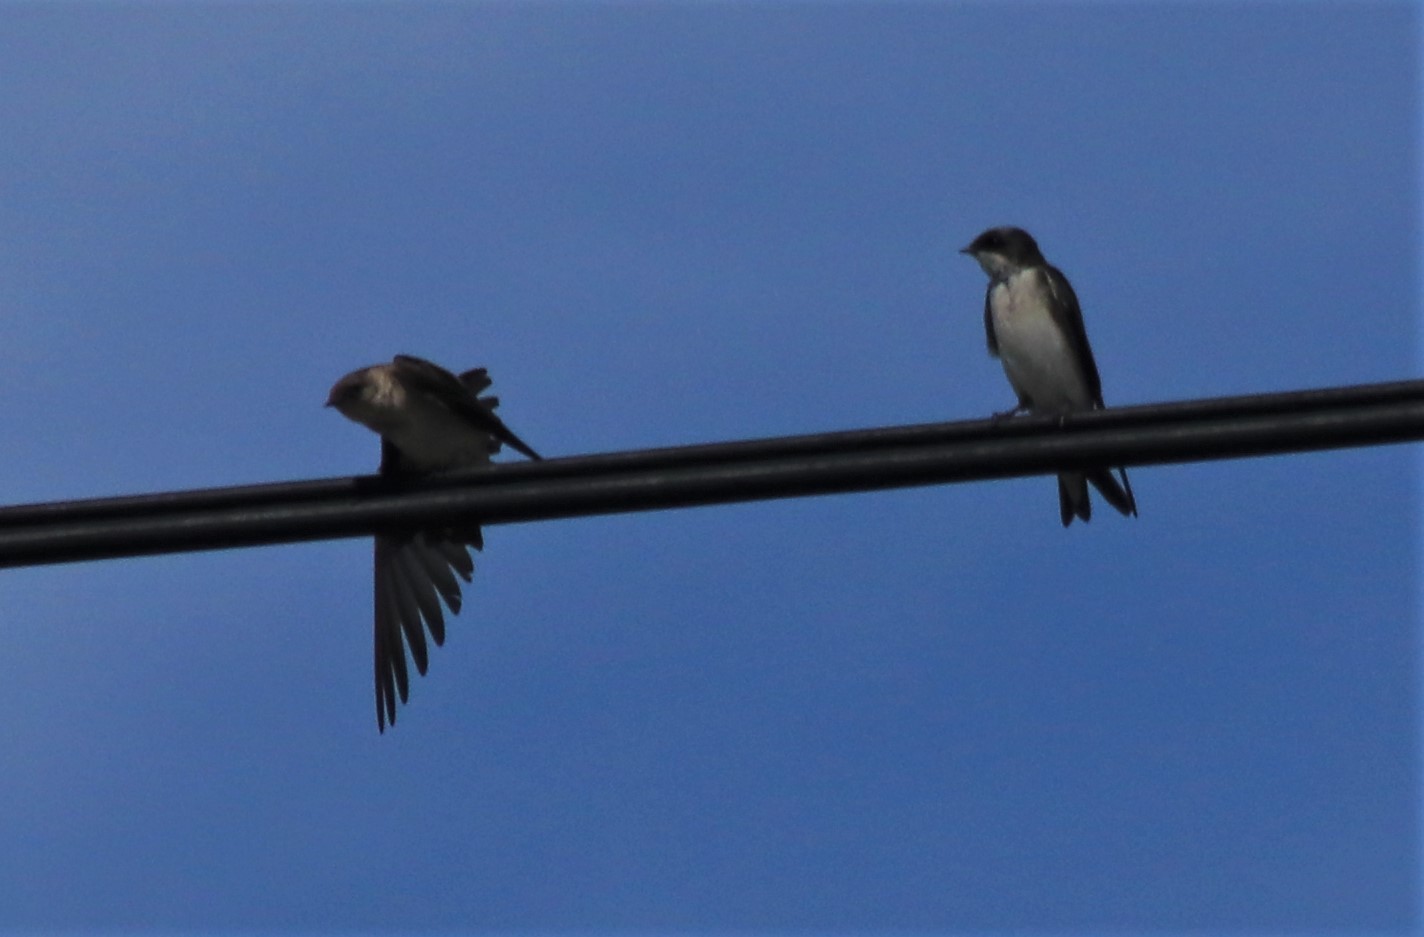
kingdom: Animalia
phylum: Chordata
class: Aves
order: Passeriformes
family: Hirundinidae
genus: Tachycineta
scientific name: Tachycineta bicolor
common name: Tree swallow
